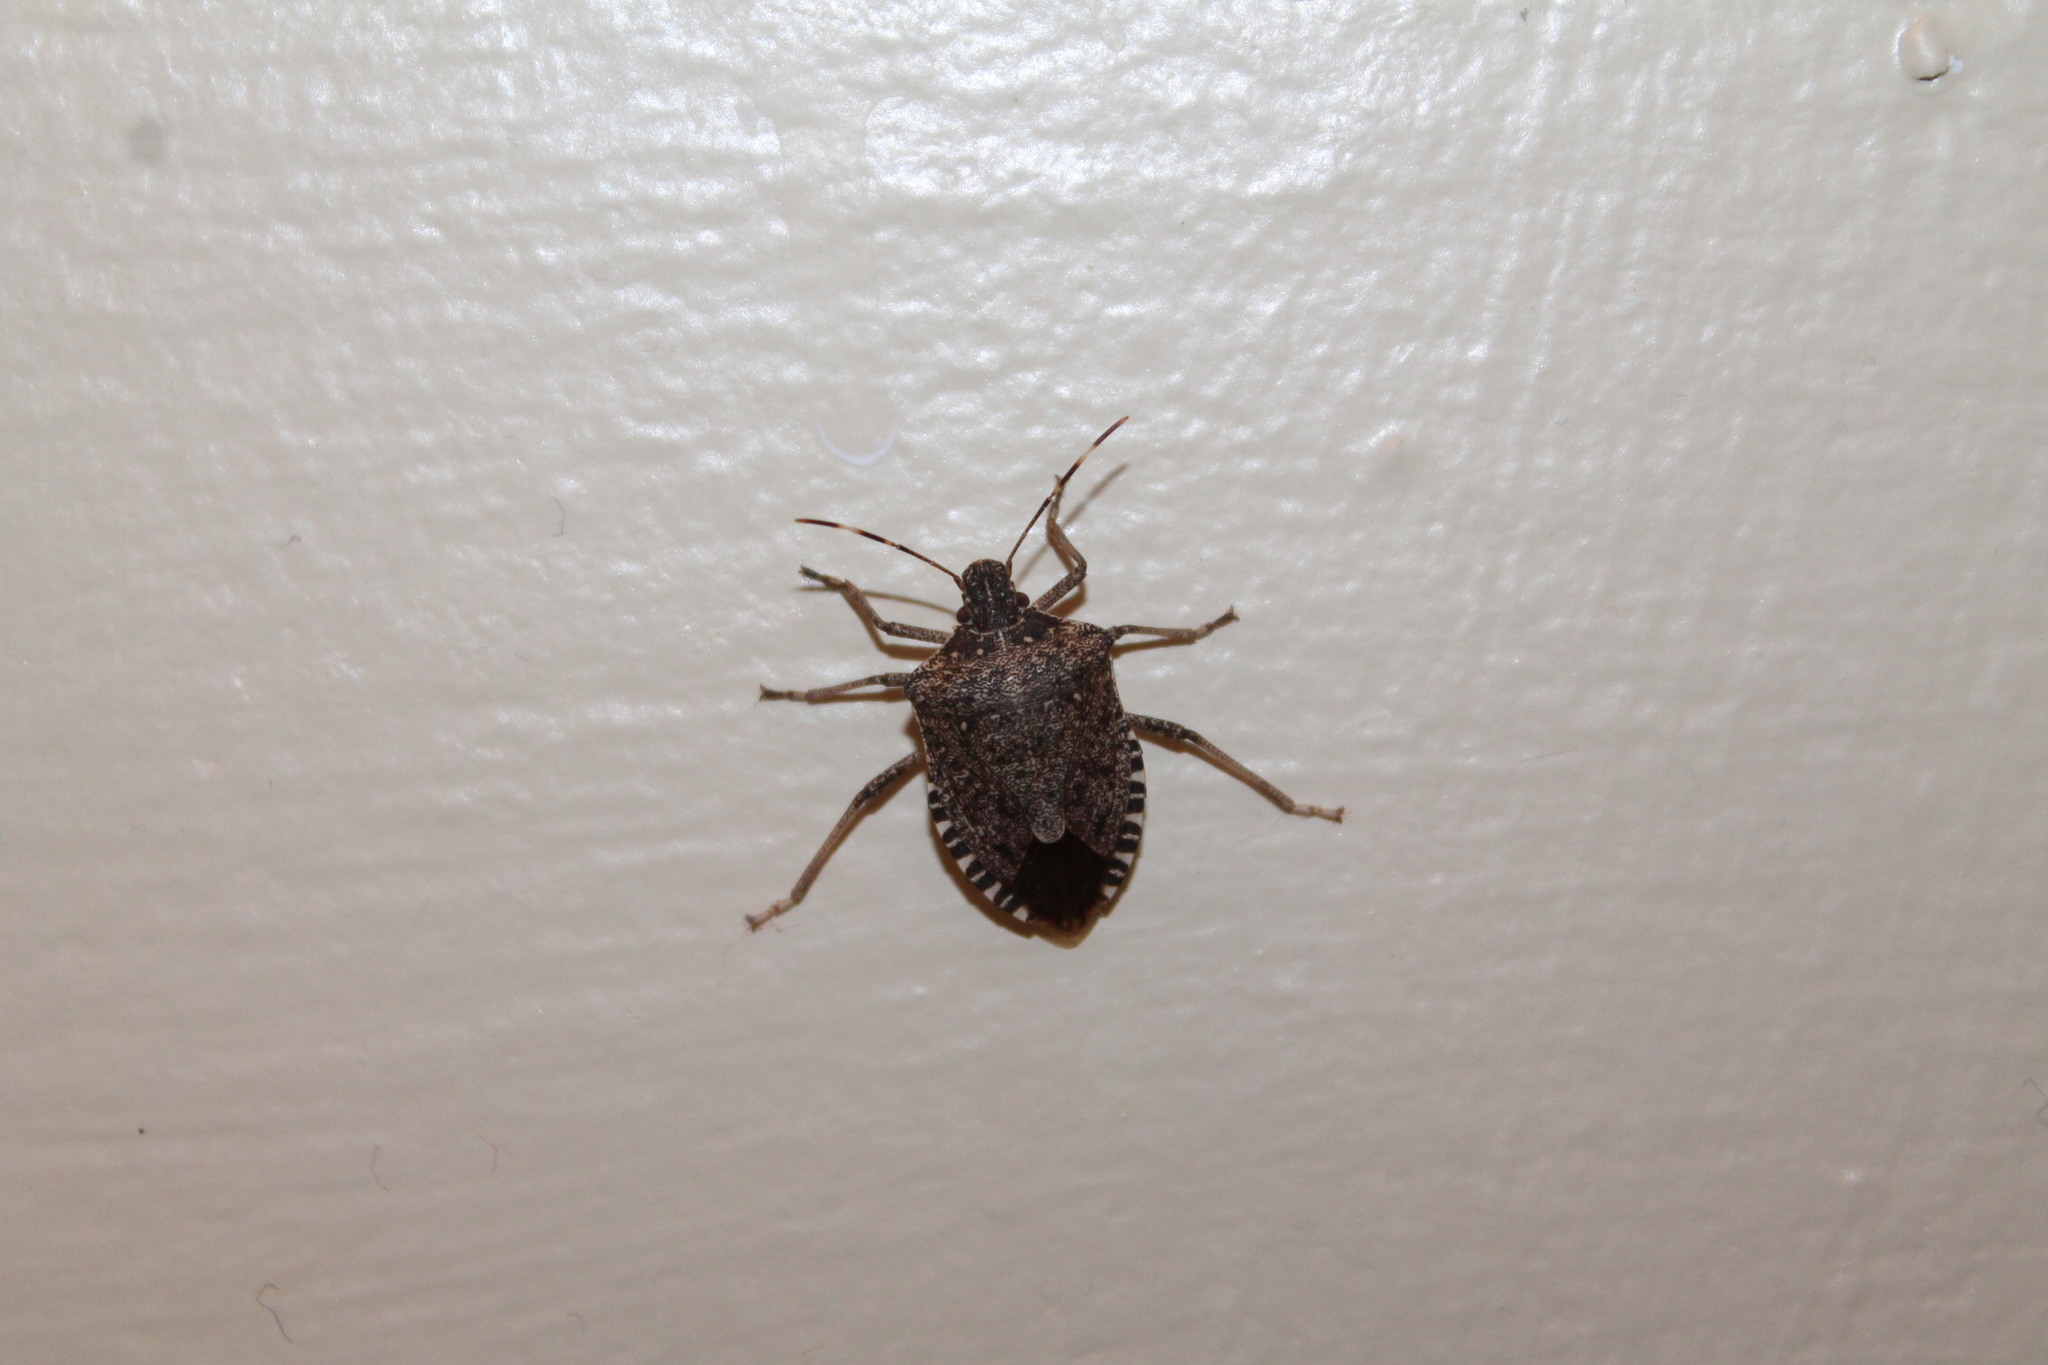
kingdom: Animalia
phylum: Arthropoda
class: Insecta
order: Hemiptera
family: Pentatomidae
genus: Halyomorpha
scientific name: Halyomorpha halys
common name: Brown marmorated stink bug
